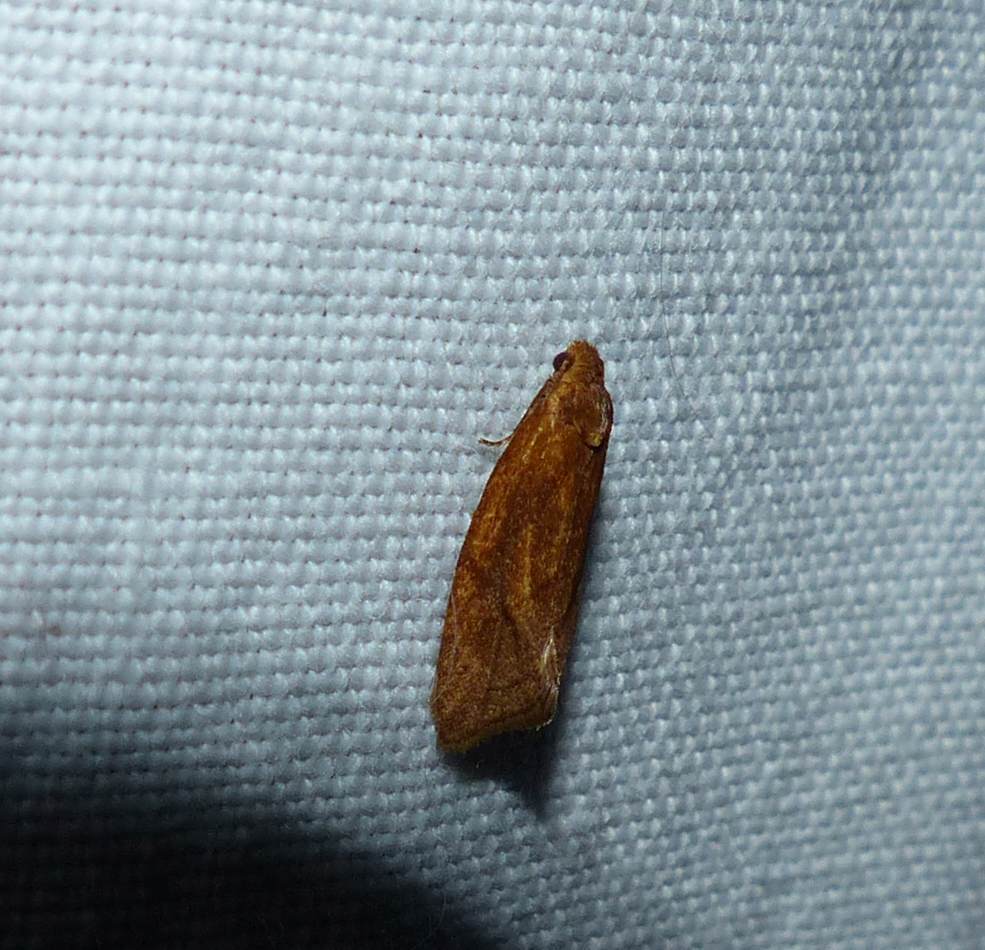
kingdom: Animalia
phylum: Arthropoda
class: Insecta
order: Lepidoptera
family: Tortricidae
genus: Aethes
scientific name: Aethes biscana
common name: Reddish aethes
